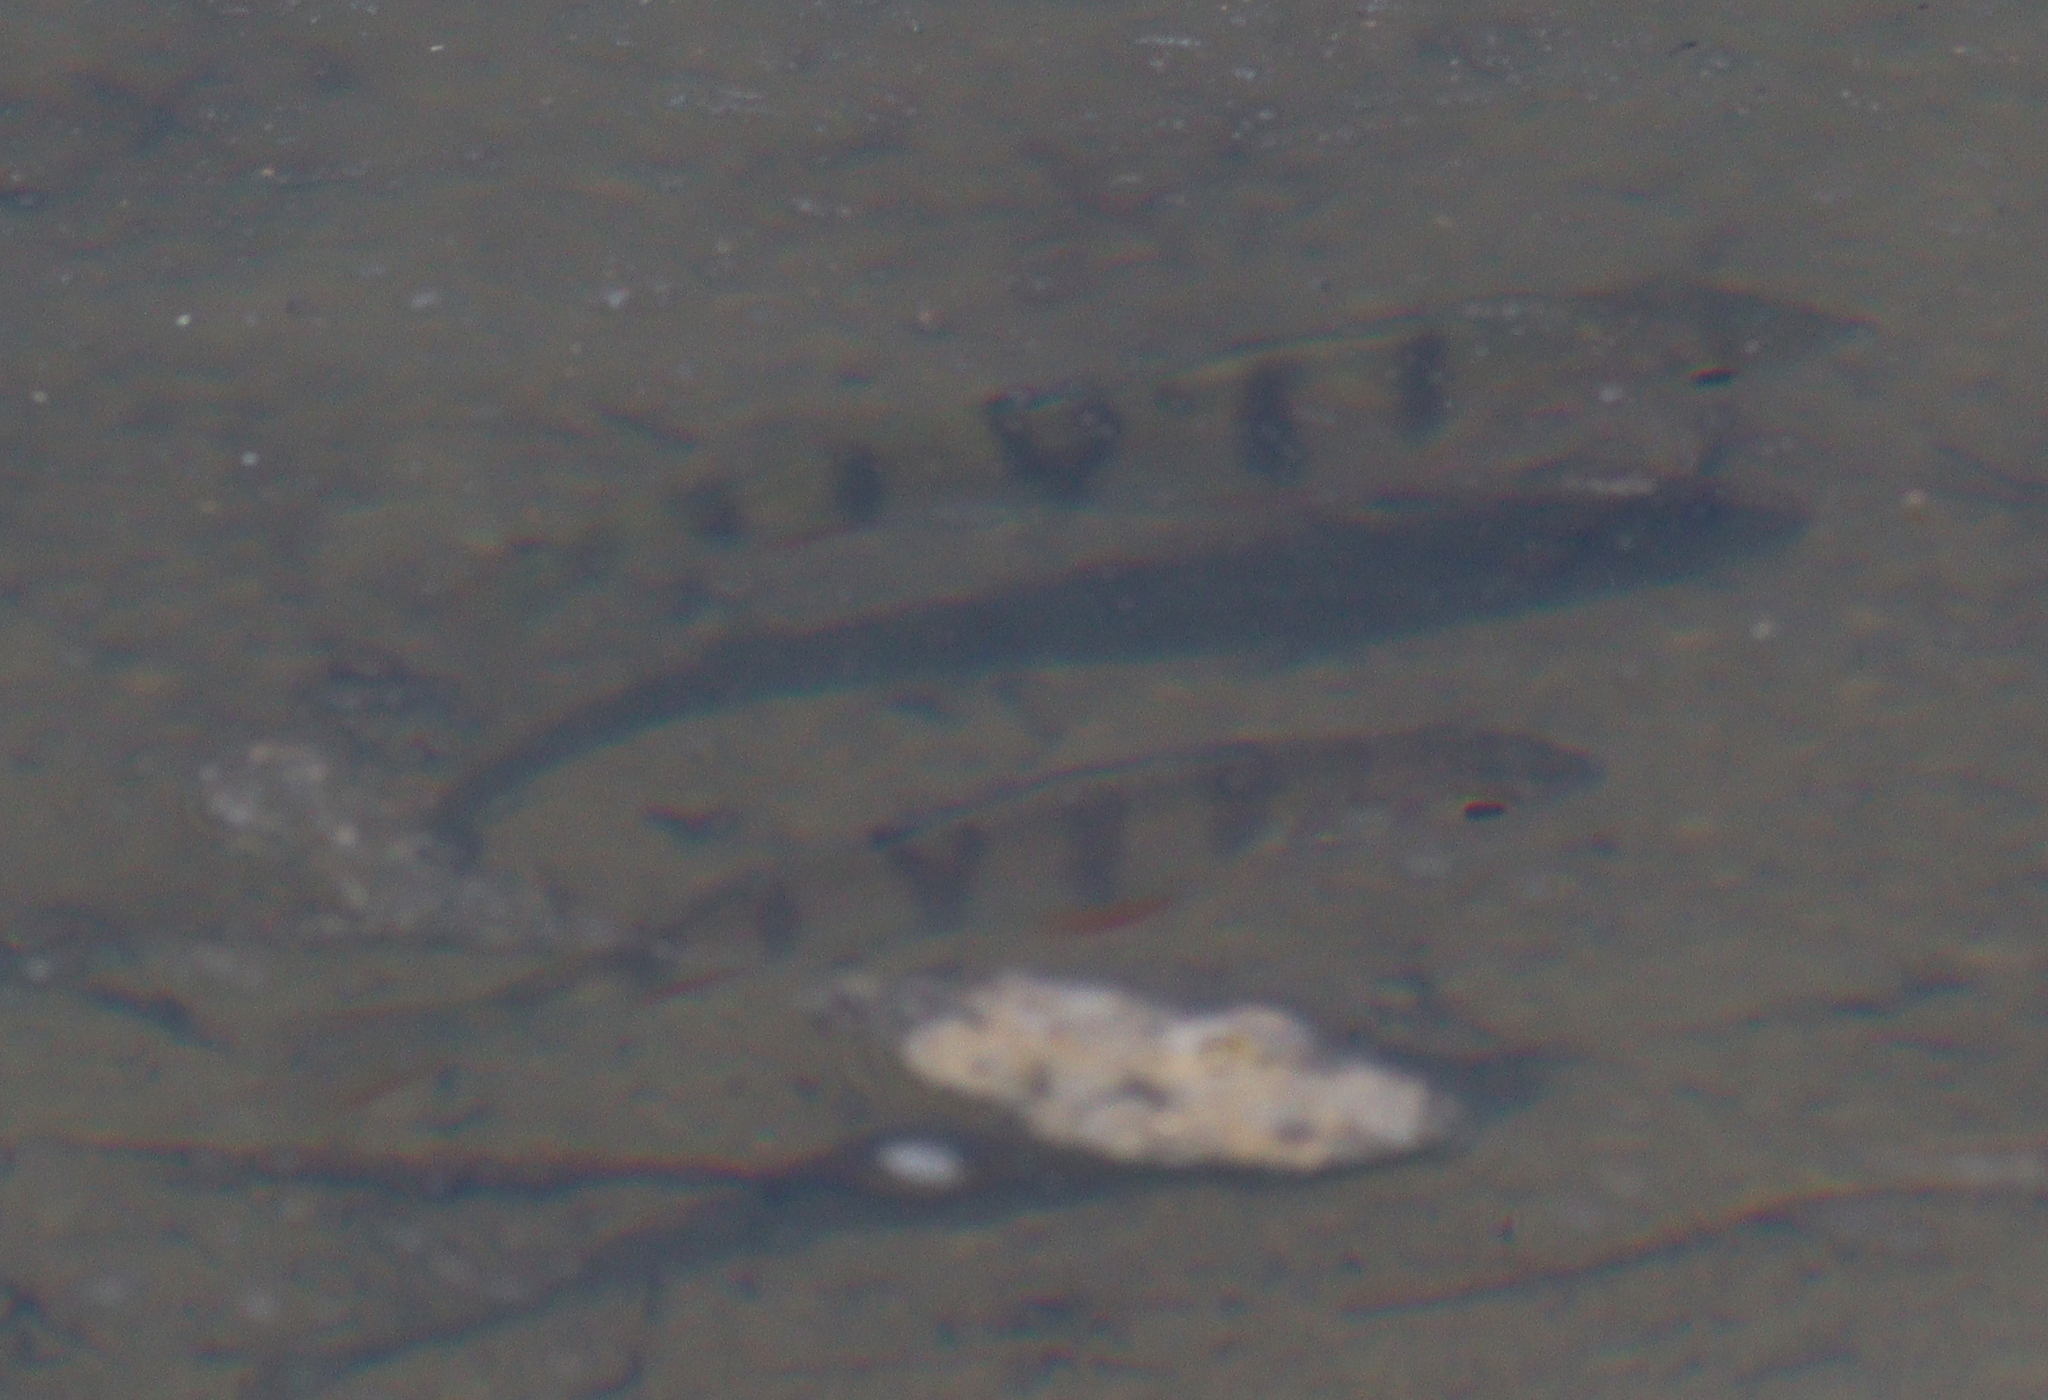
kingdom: Animalia
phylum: Chordata
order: Perciformes
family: Percidae
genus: Perca
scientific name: Perca fluviatilis
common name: Perch
